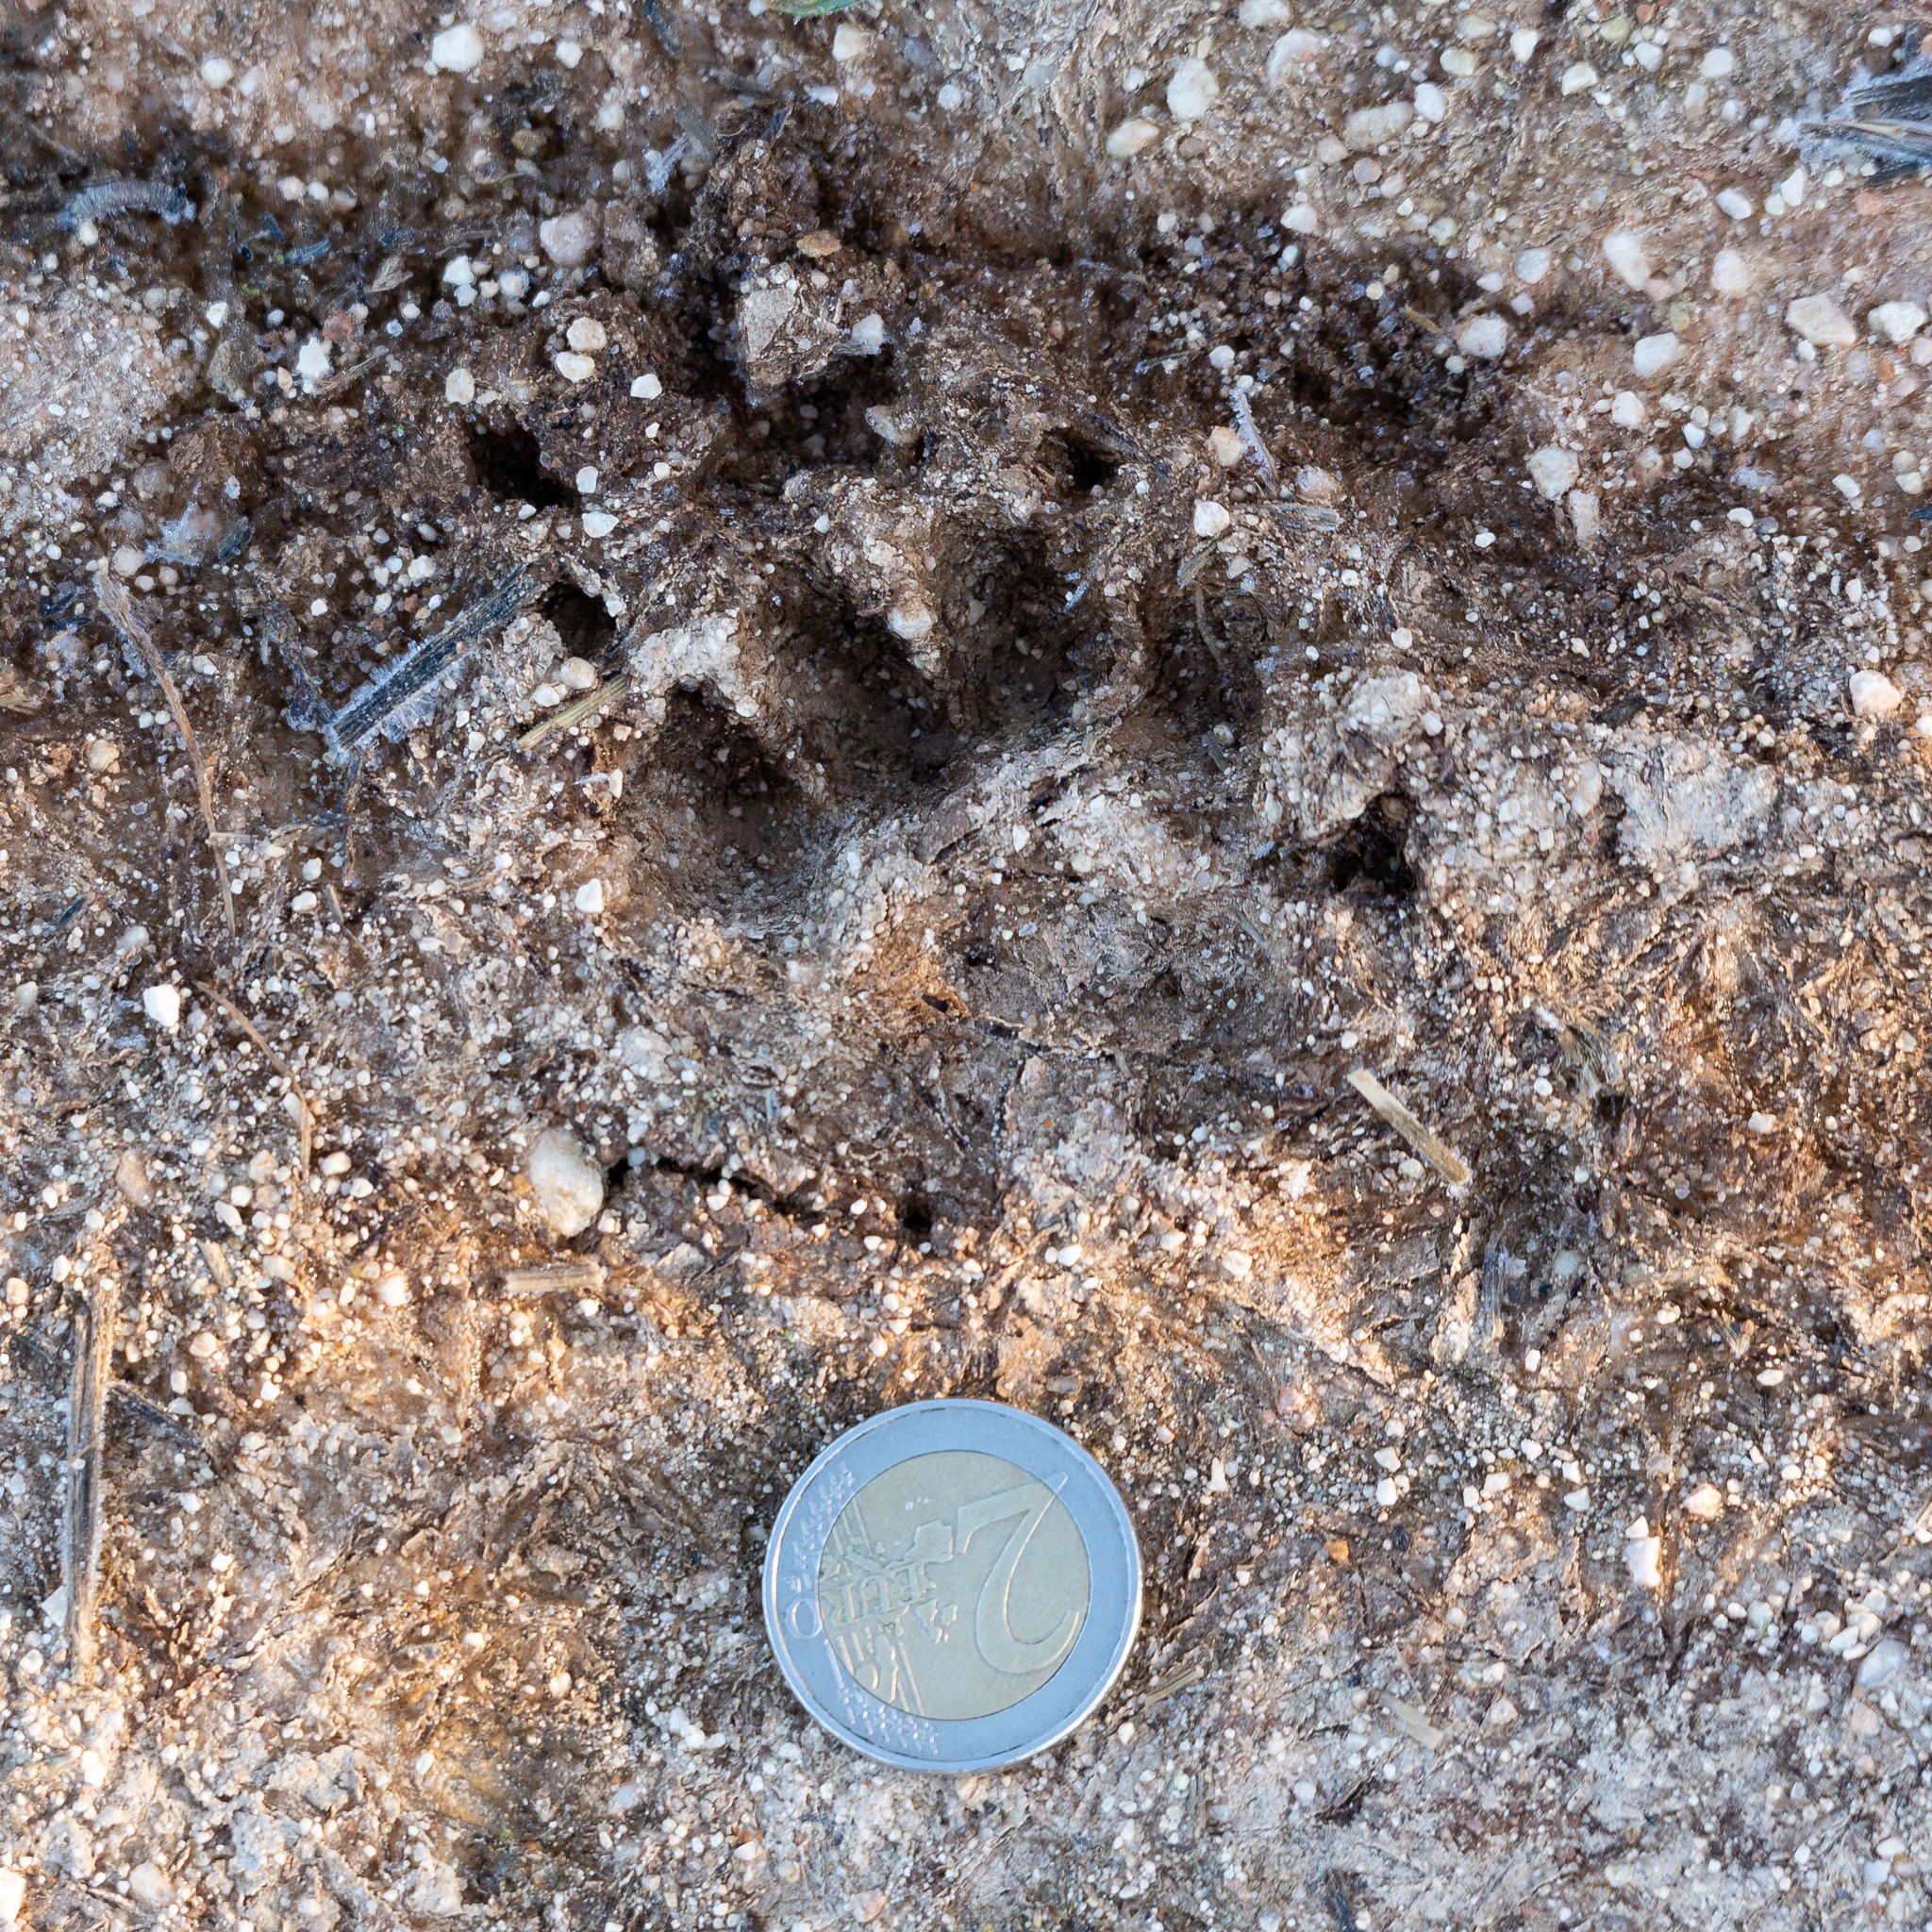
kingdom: Animalia
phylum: Chordata
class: Mammalia
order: Carnivora
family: Mustelidae
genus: Meles
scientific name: Meles meles
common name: Eurasian badger
